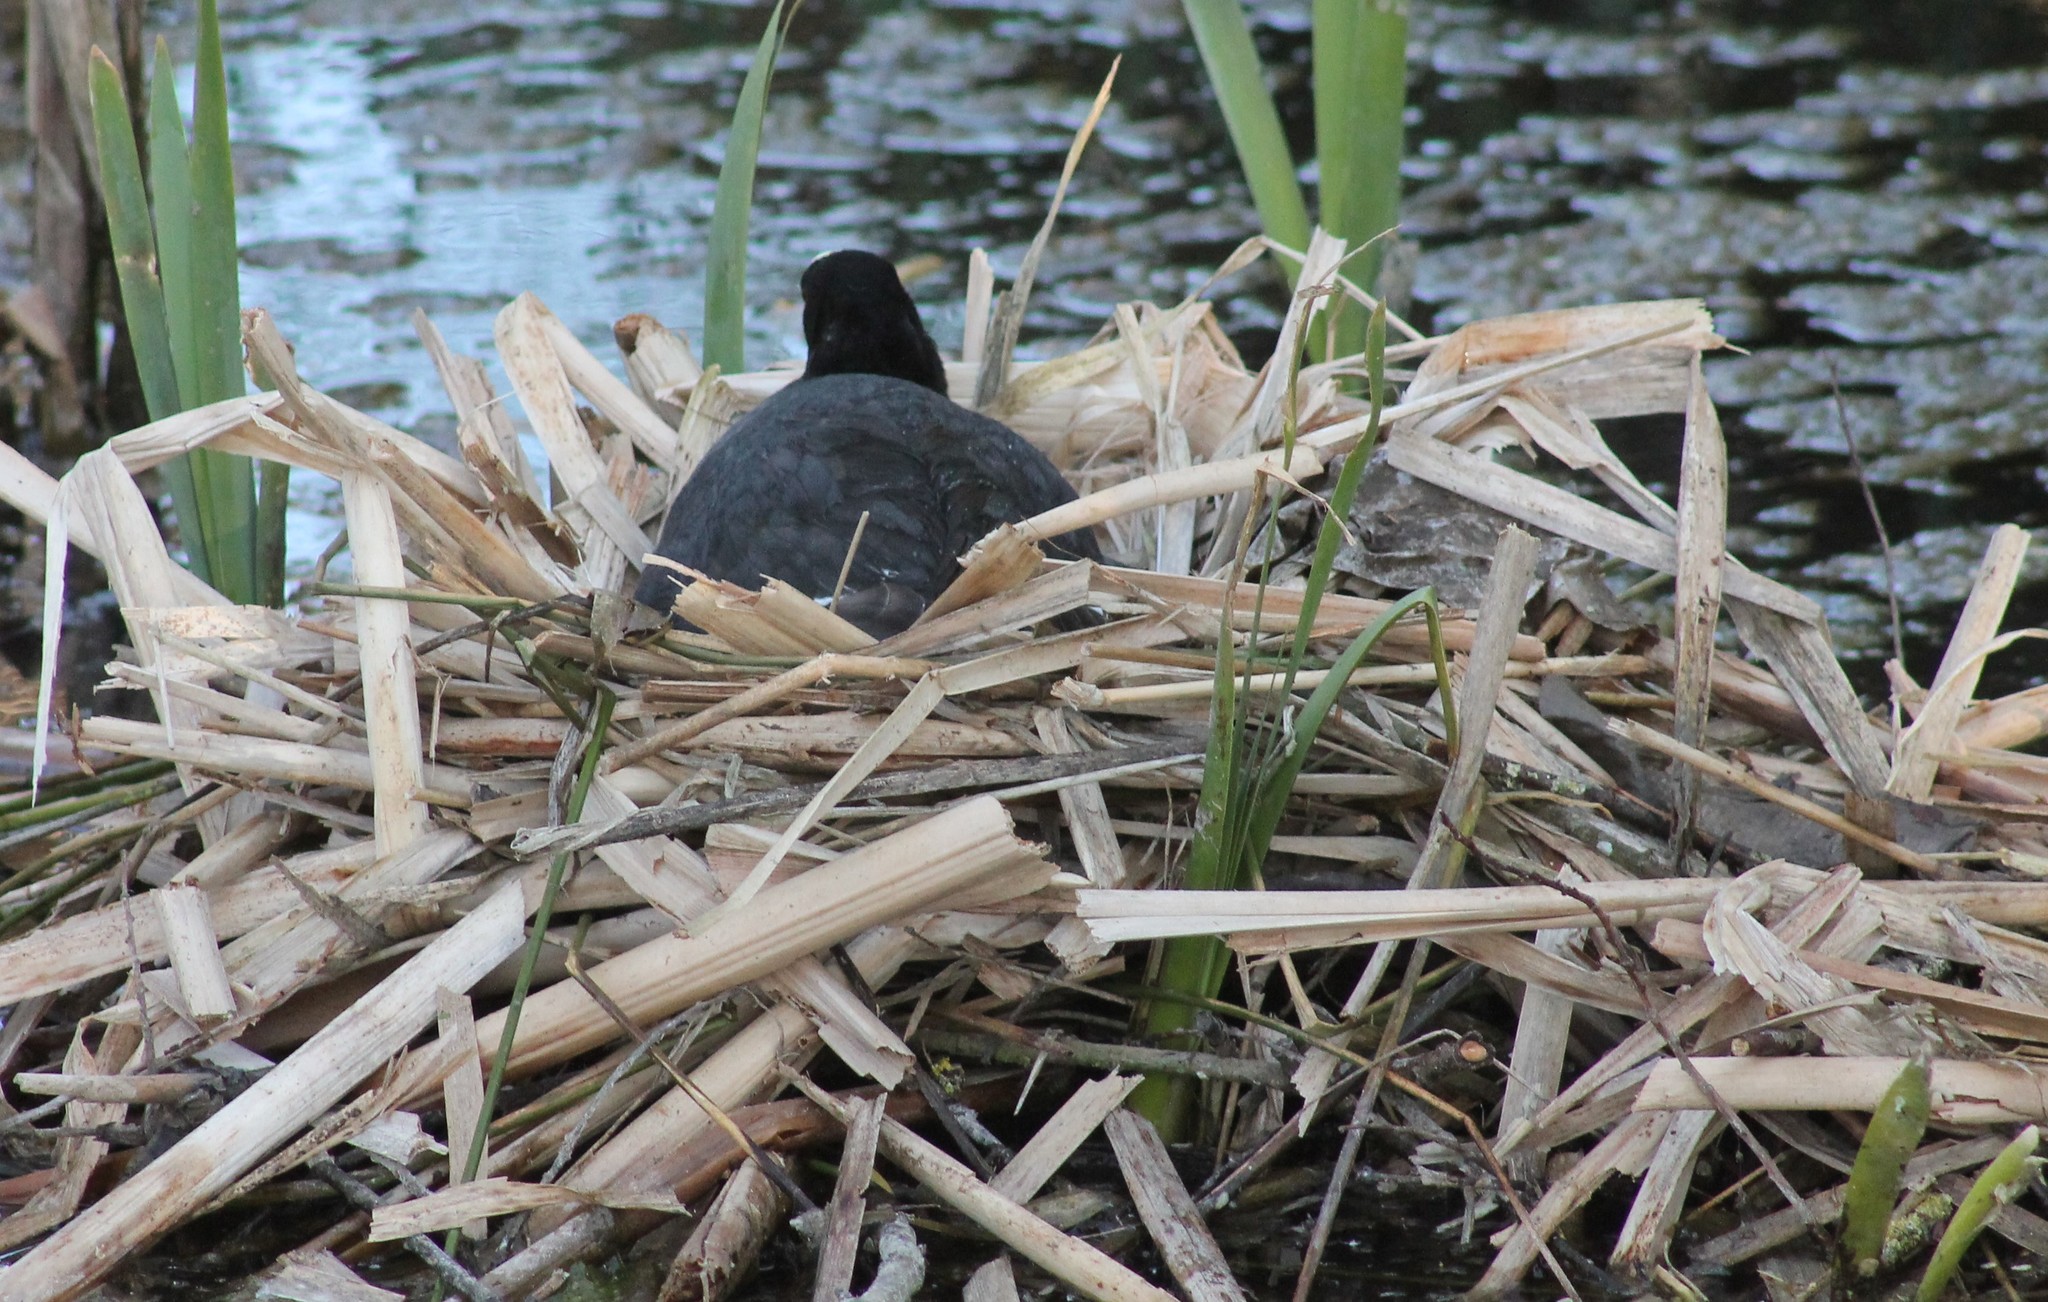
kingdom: Animalia
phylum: Chordata
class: Aves
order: Gruiformes
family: Rallidae
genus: Fulica
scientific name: Fulica atra
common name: Eurasian coot
